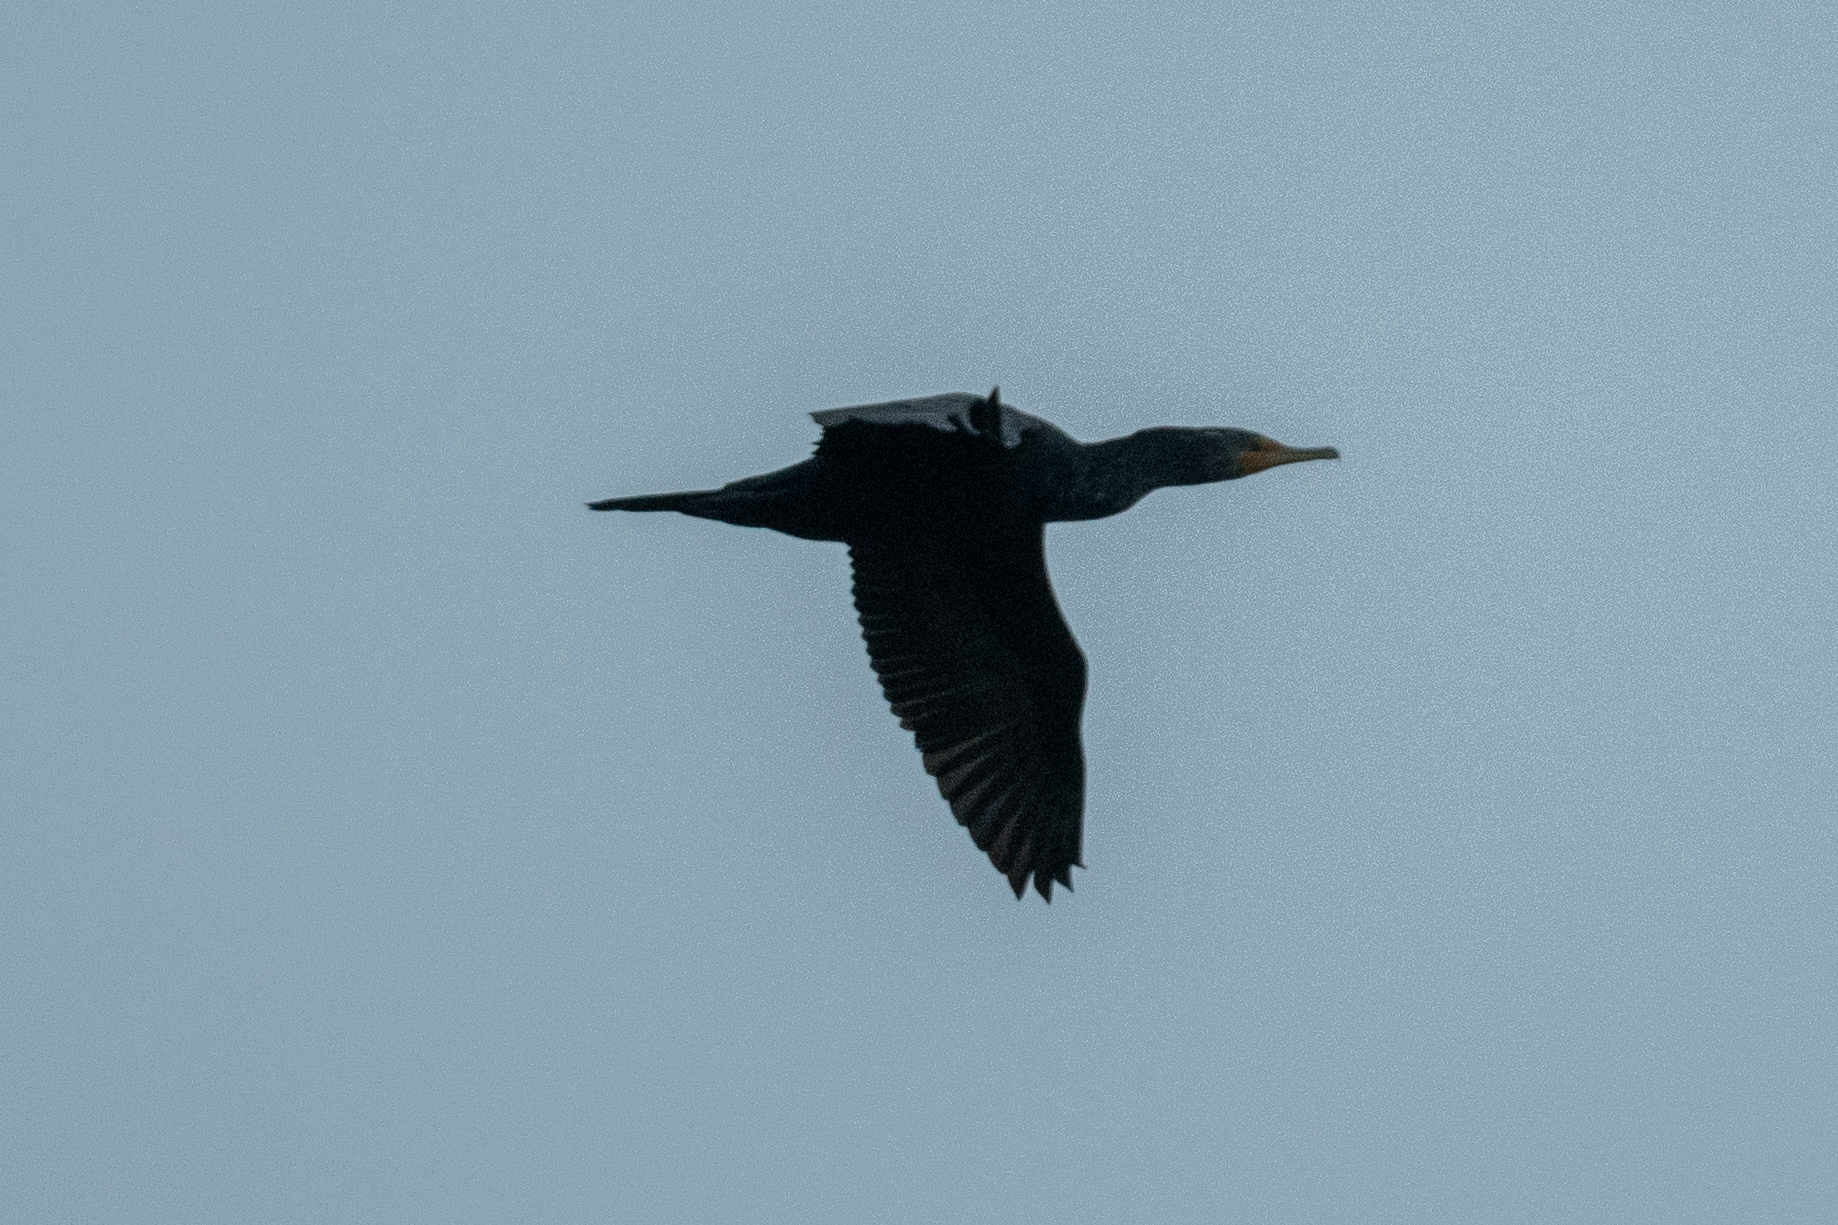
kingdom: Animalia
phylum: Chordata
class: Aves
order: Suliformes
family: Phalacrocoracidae
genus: Phalacrocorax
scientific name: Phalacrocorax auritus
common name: Double-crested cormorant
